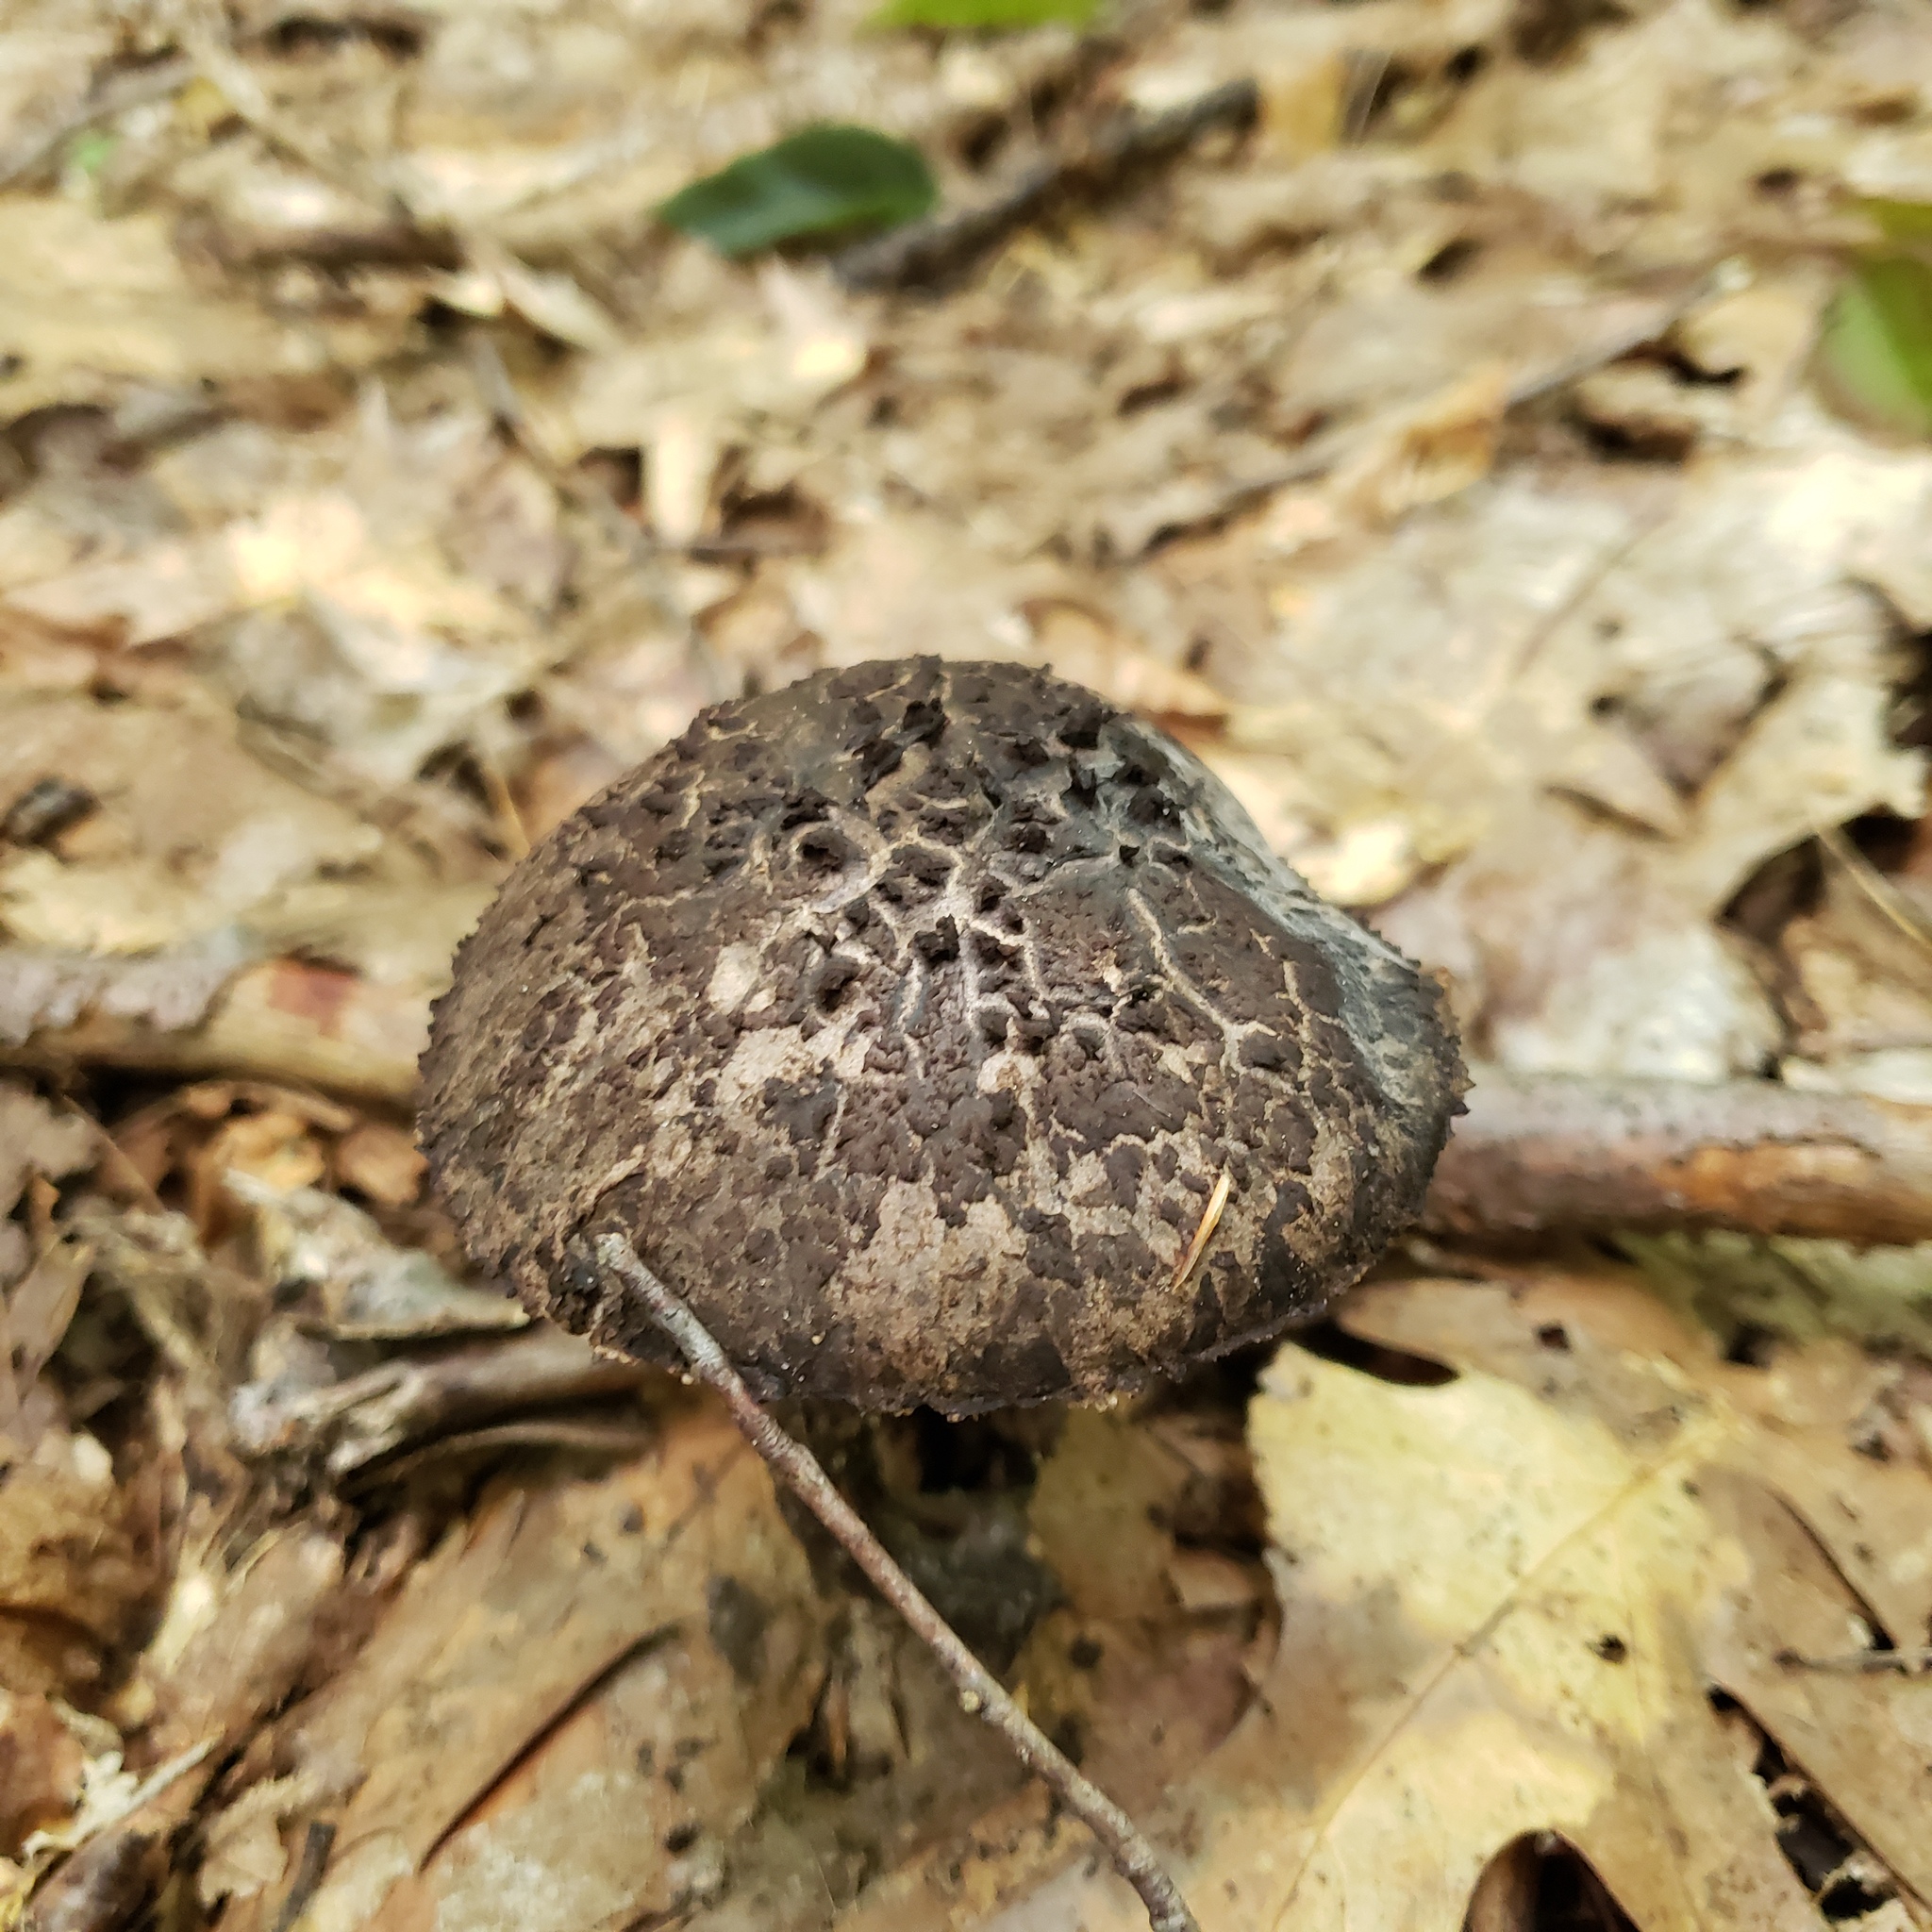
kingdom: Fungi
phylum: Basidiomycota
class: Agaricomycetes
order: Boletales
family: Boletaceae
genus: Strobilomyces
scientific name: Strobilomyces strobilaceus
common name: Old man of the woods
